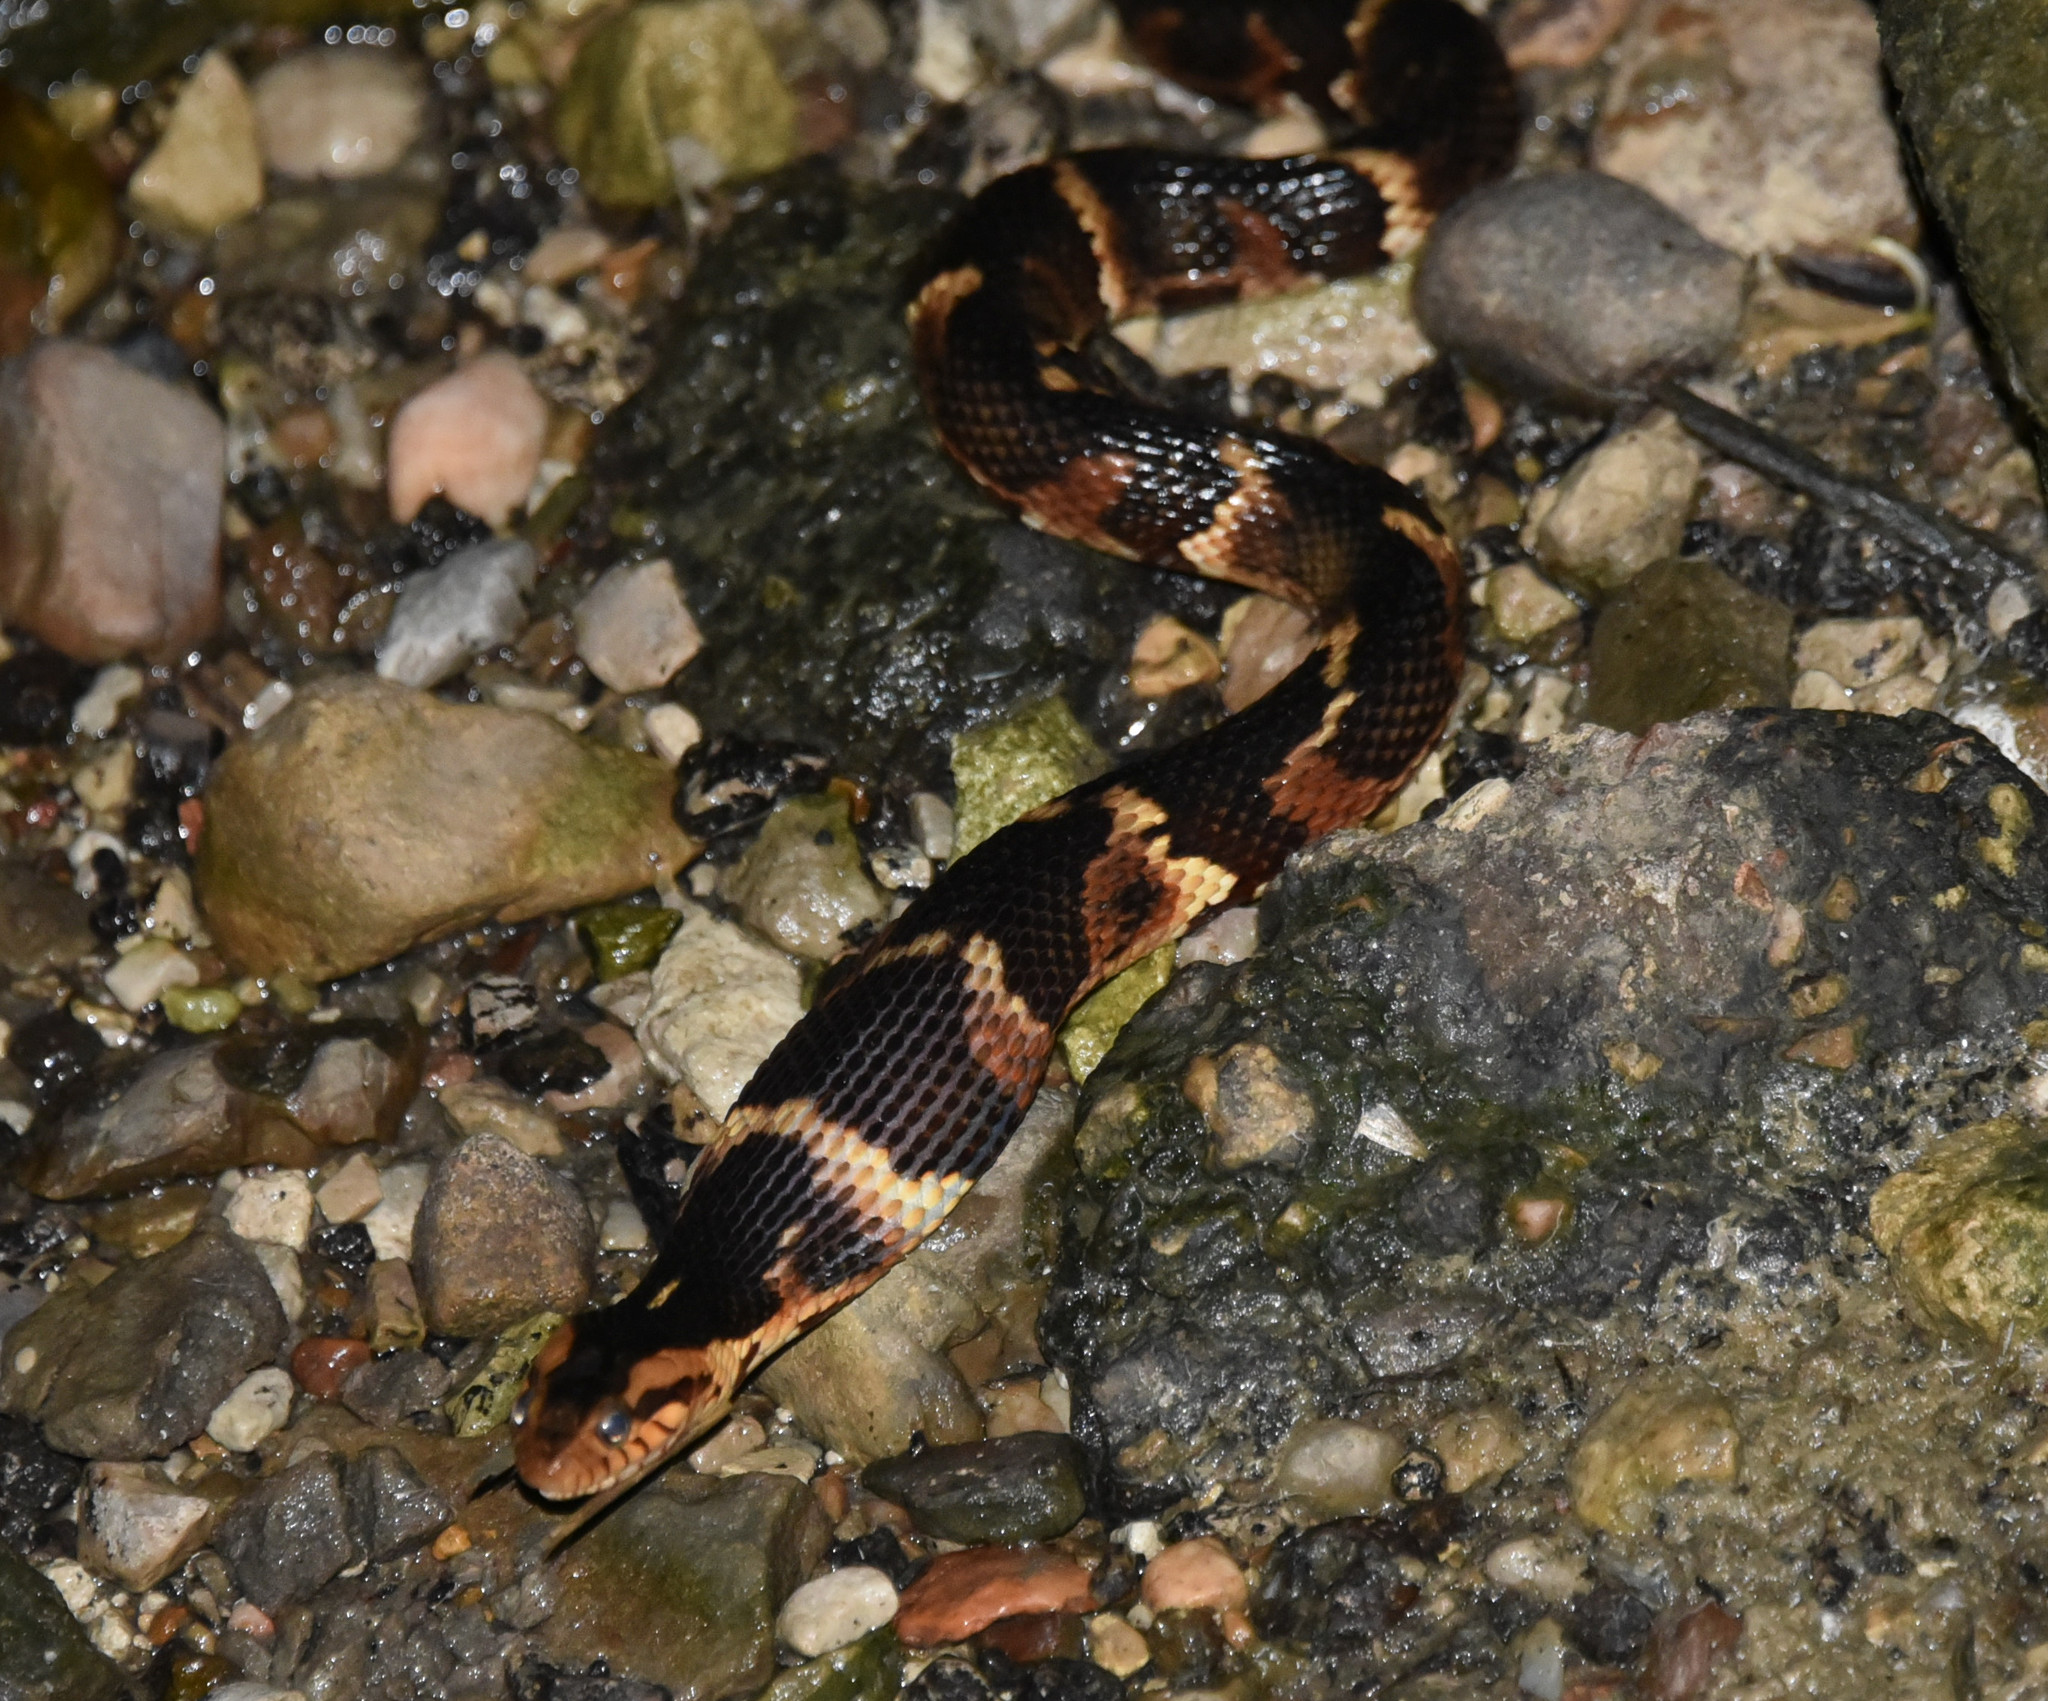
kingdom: Animalia
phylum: Chordata
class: Squamata
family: Colubridae
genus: Nerodia
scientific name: Nerodia fasciata
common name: Southern water snake
